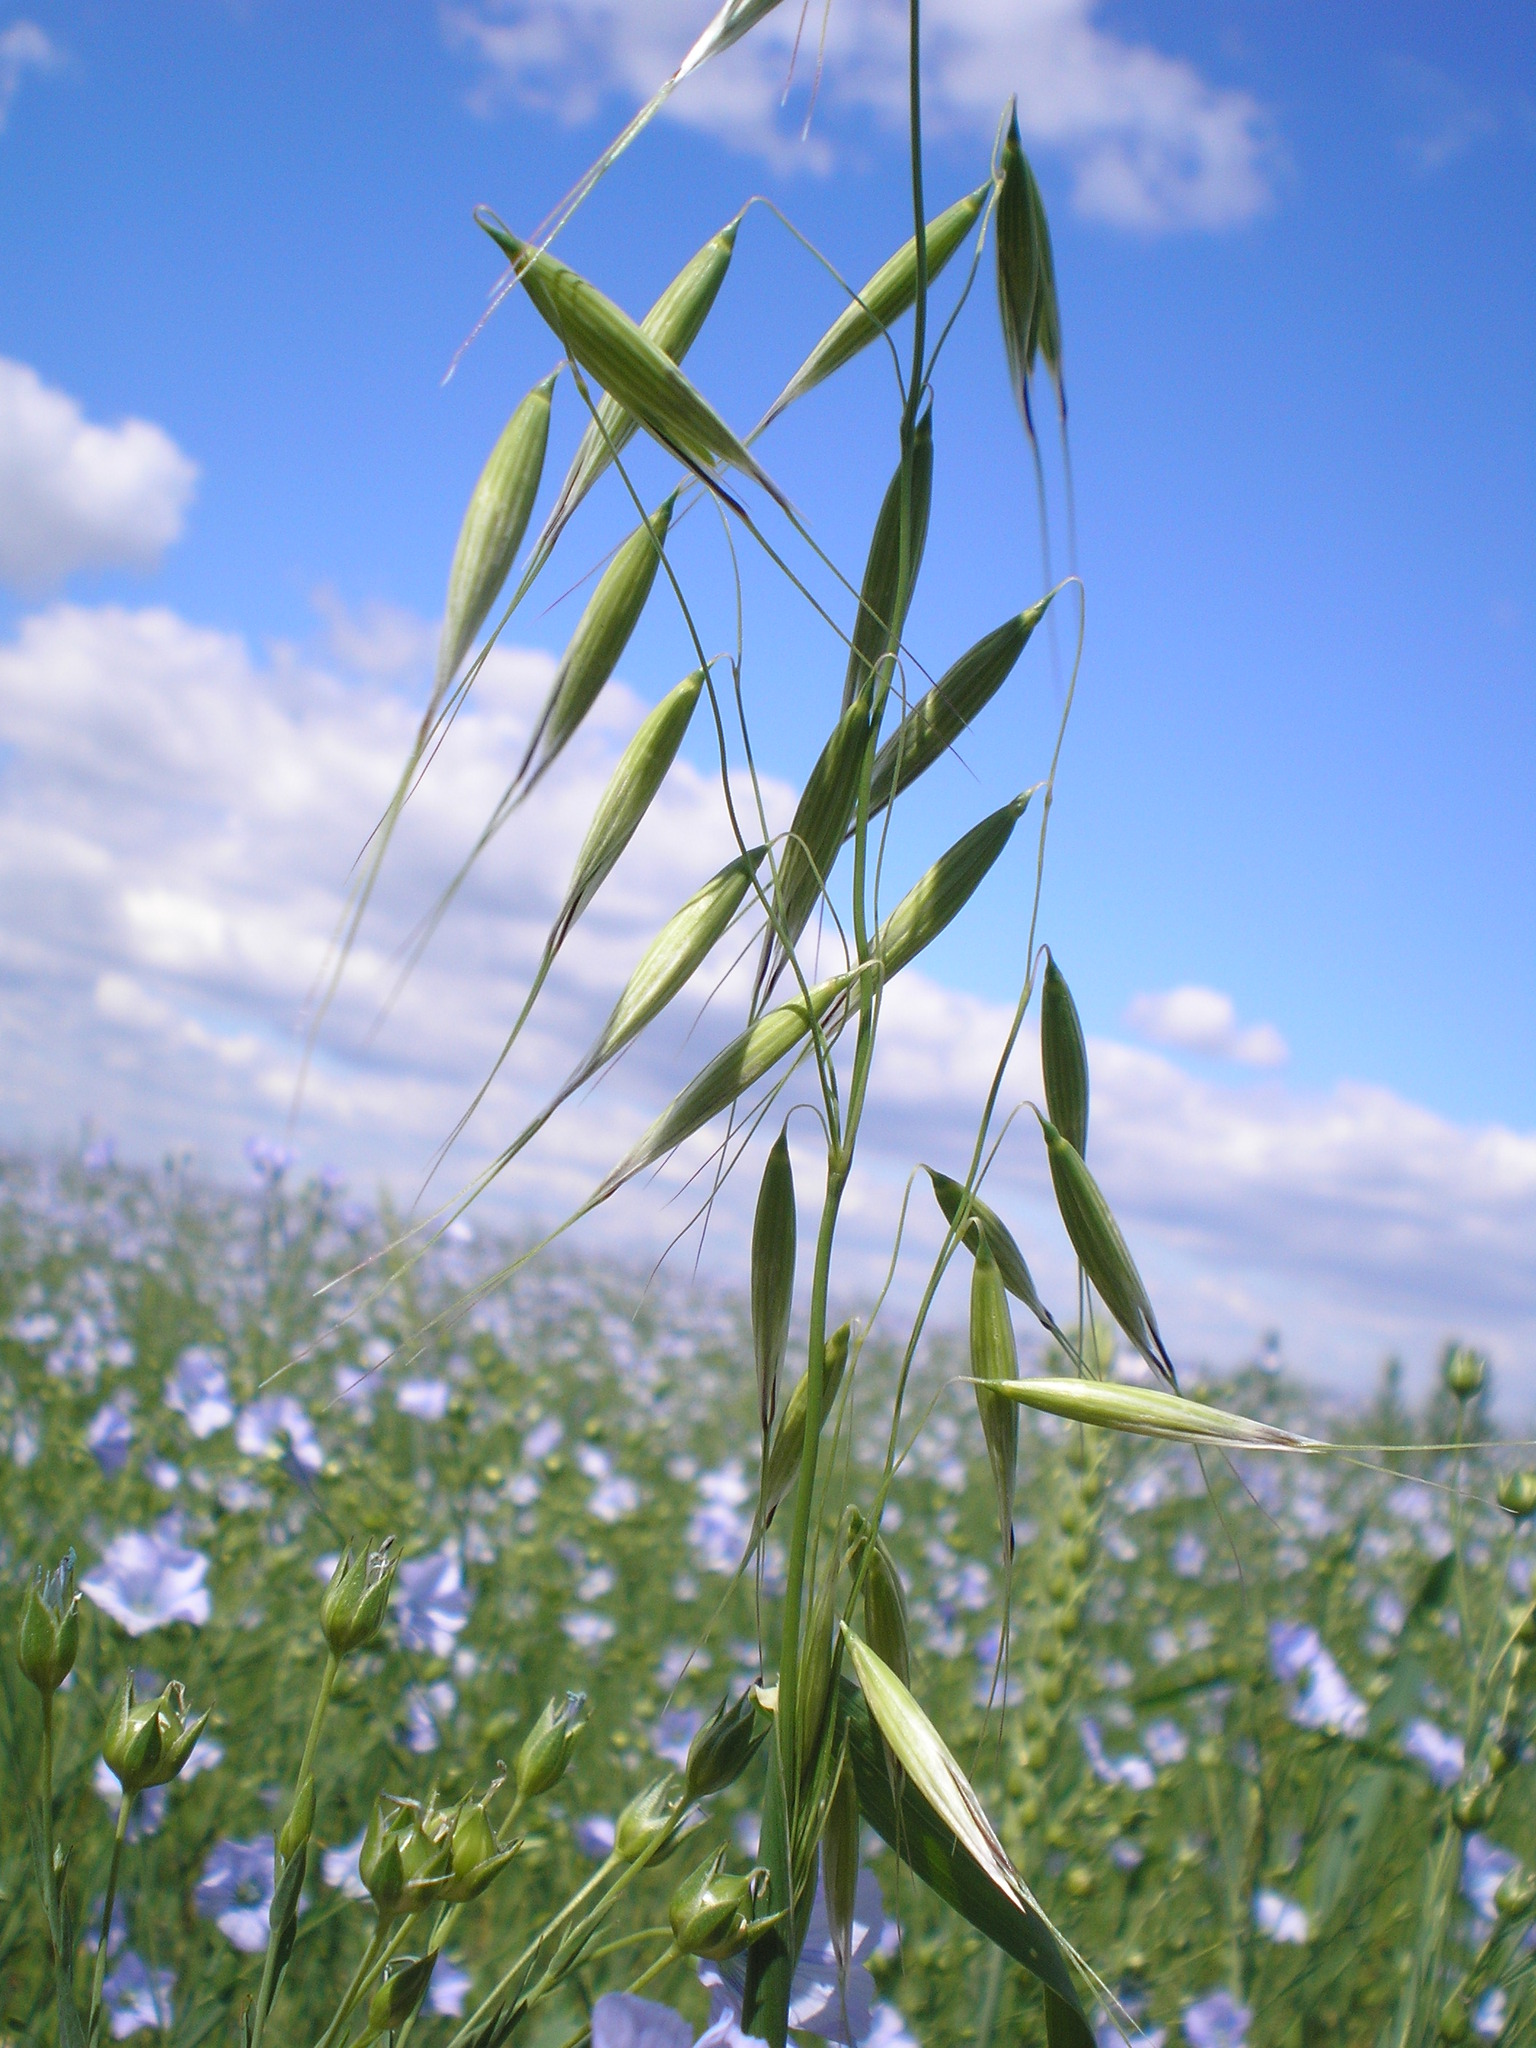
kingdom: Plantae
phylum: Tracheophyta
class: Liliopsida
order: Poales
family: Poaceae
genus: Avena
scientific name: Avena fatua
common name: Wild oat
